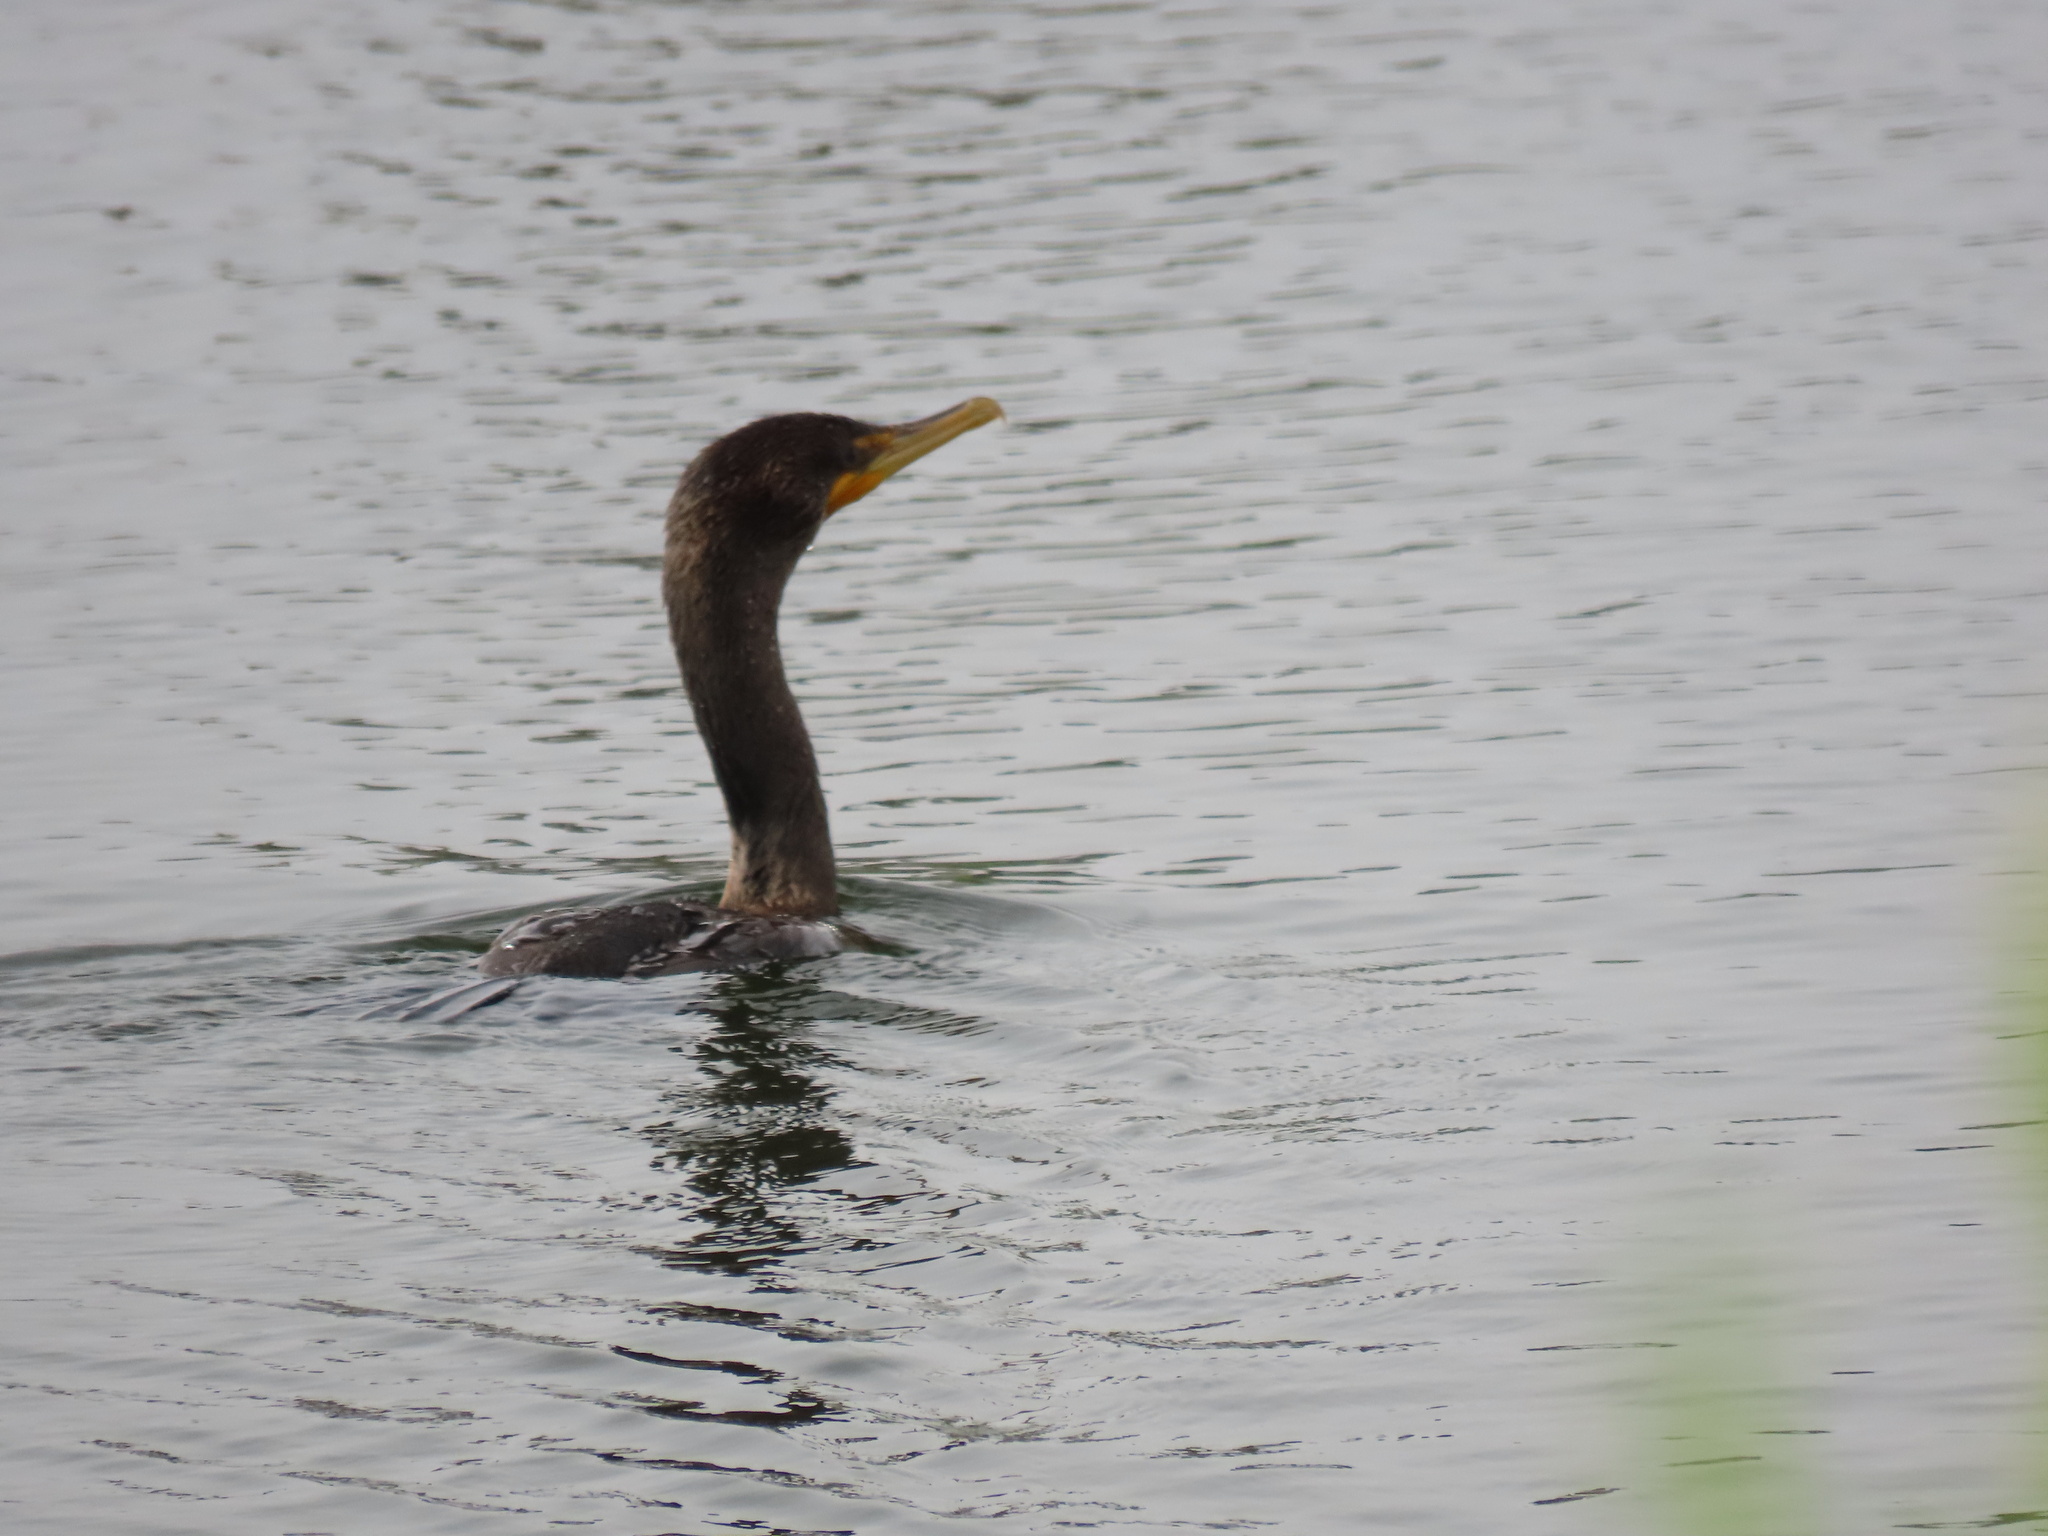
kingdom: Animalia
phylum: Chordata
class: Aves
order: Suliformes
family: Phalacrocoracidae
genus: Phalacrocorax
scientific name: Phalacrocorax auritus
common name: Double-crested cormorant
